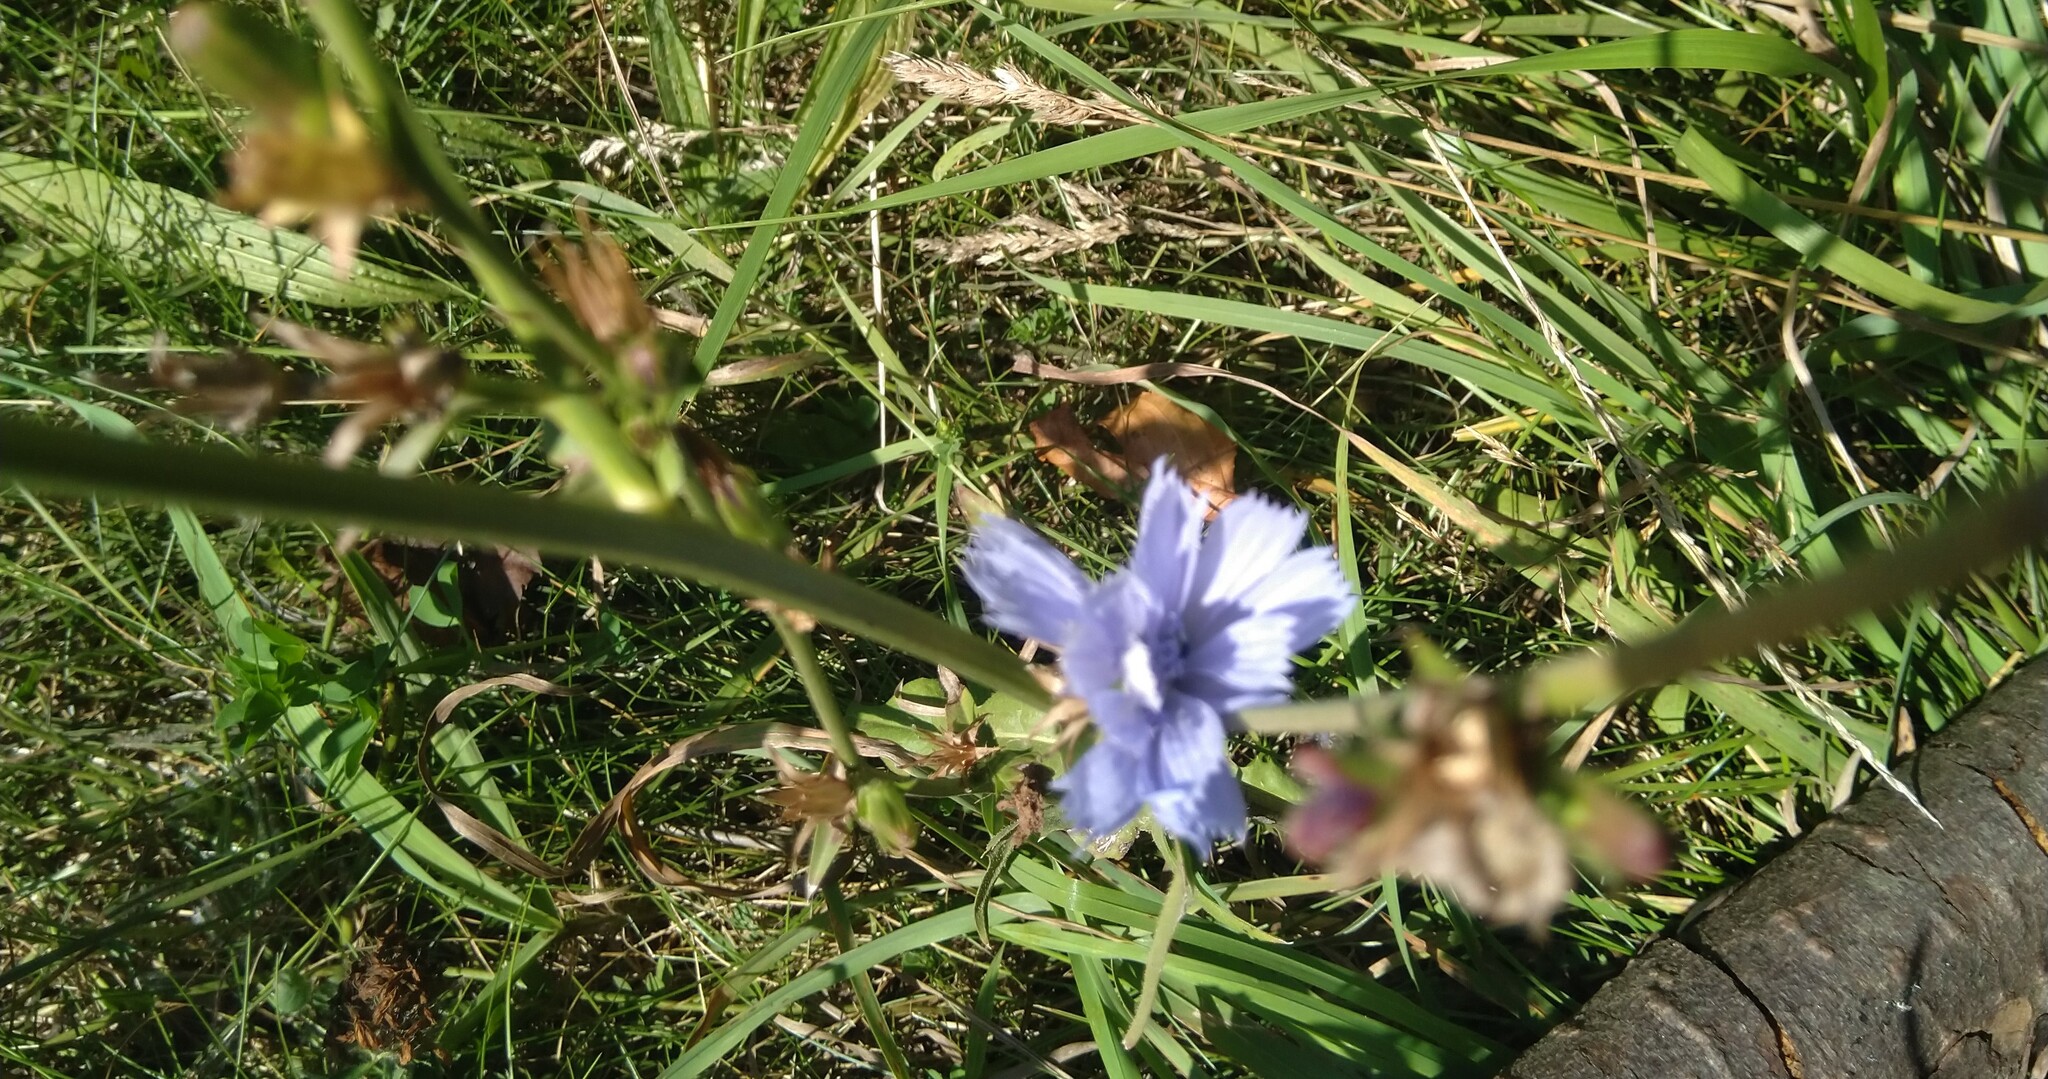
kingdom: Plantae
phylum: Tracheophyta
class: Magnoliopsida
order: Asterales
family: Asteraceae
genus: Cichorium
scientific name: Cichorium intybus
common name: Chicory
